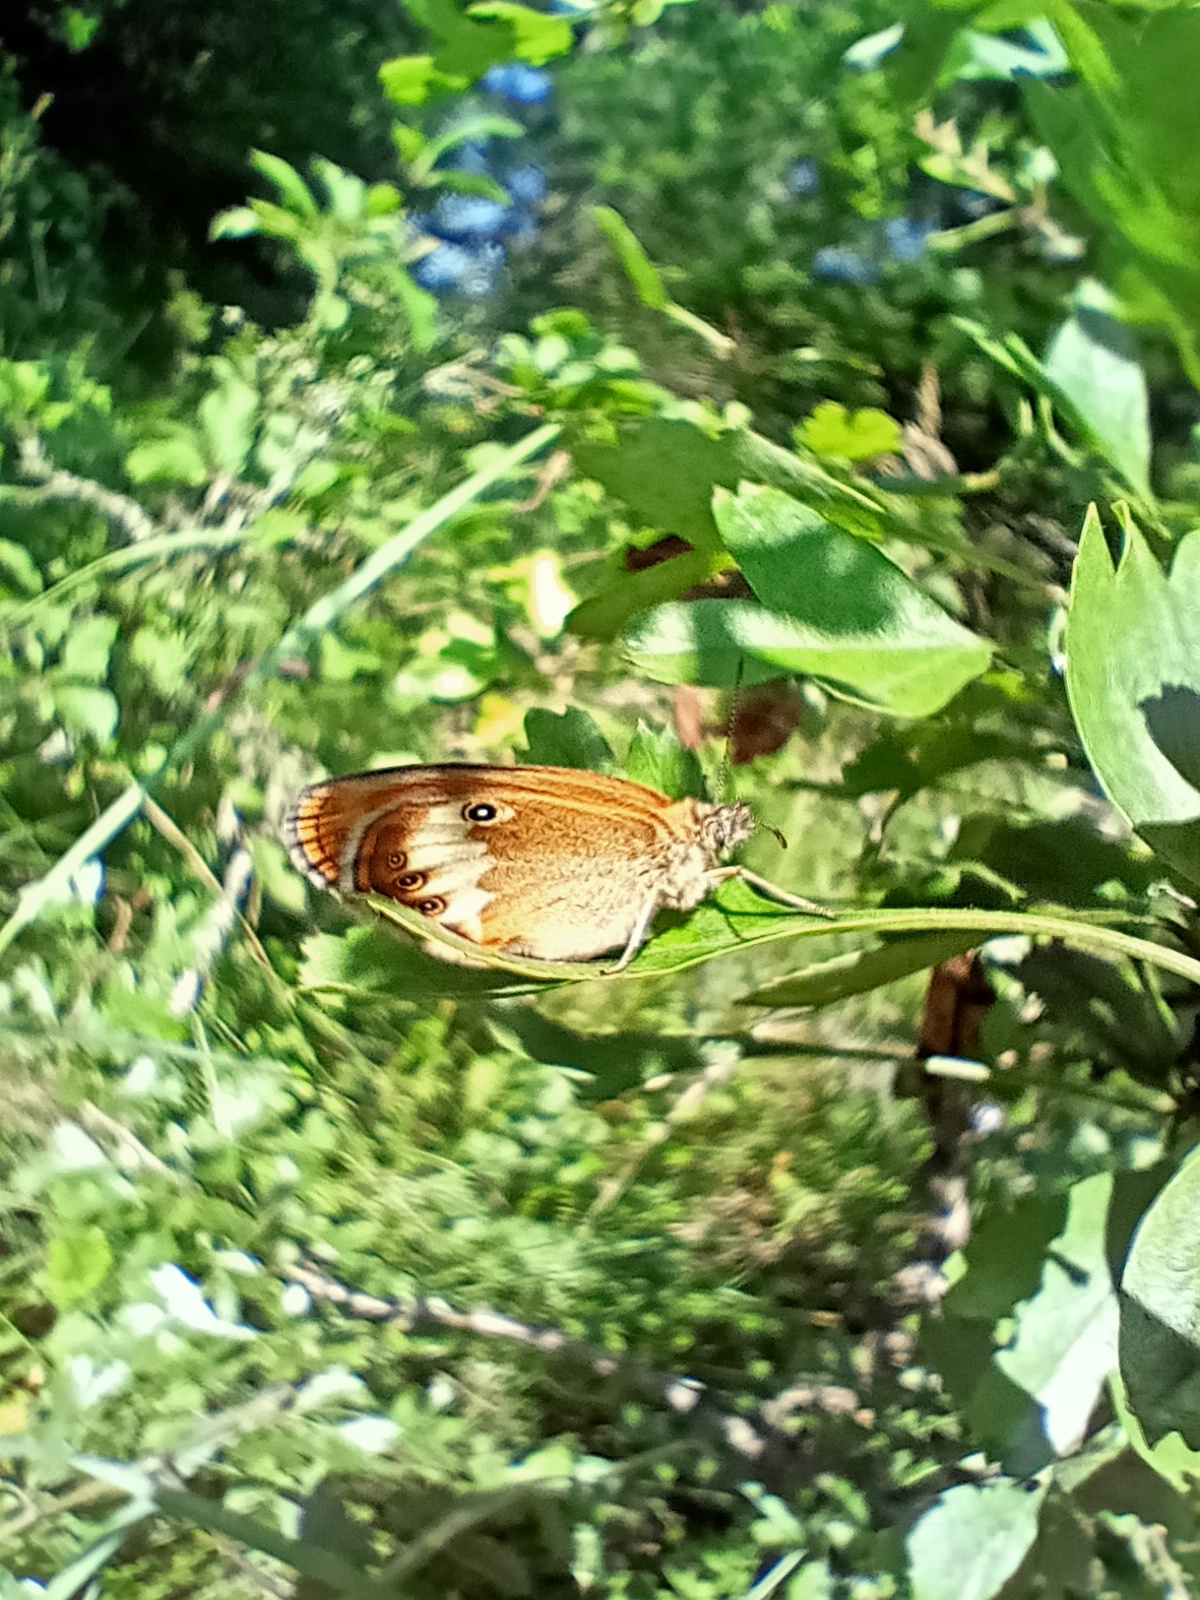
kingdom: Animalia
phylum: Arthropoda
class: Insecta
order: Lepidoptera
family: Nymphalidae
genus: Coenonympha
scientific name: Coenonympha arcania
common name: Pearly heath
